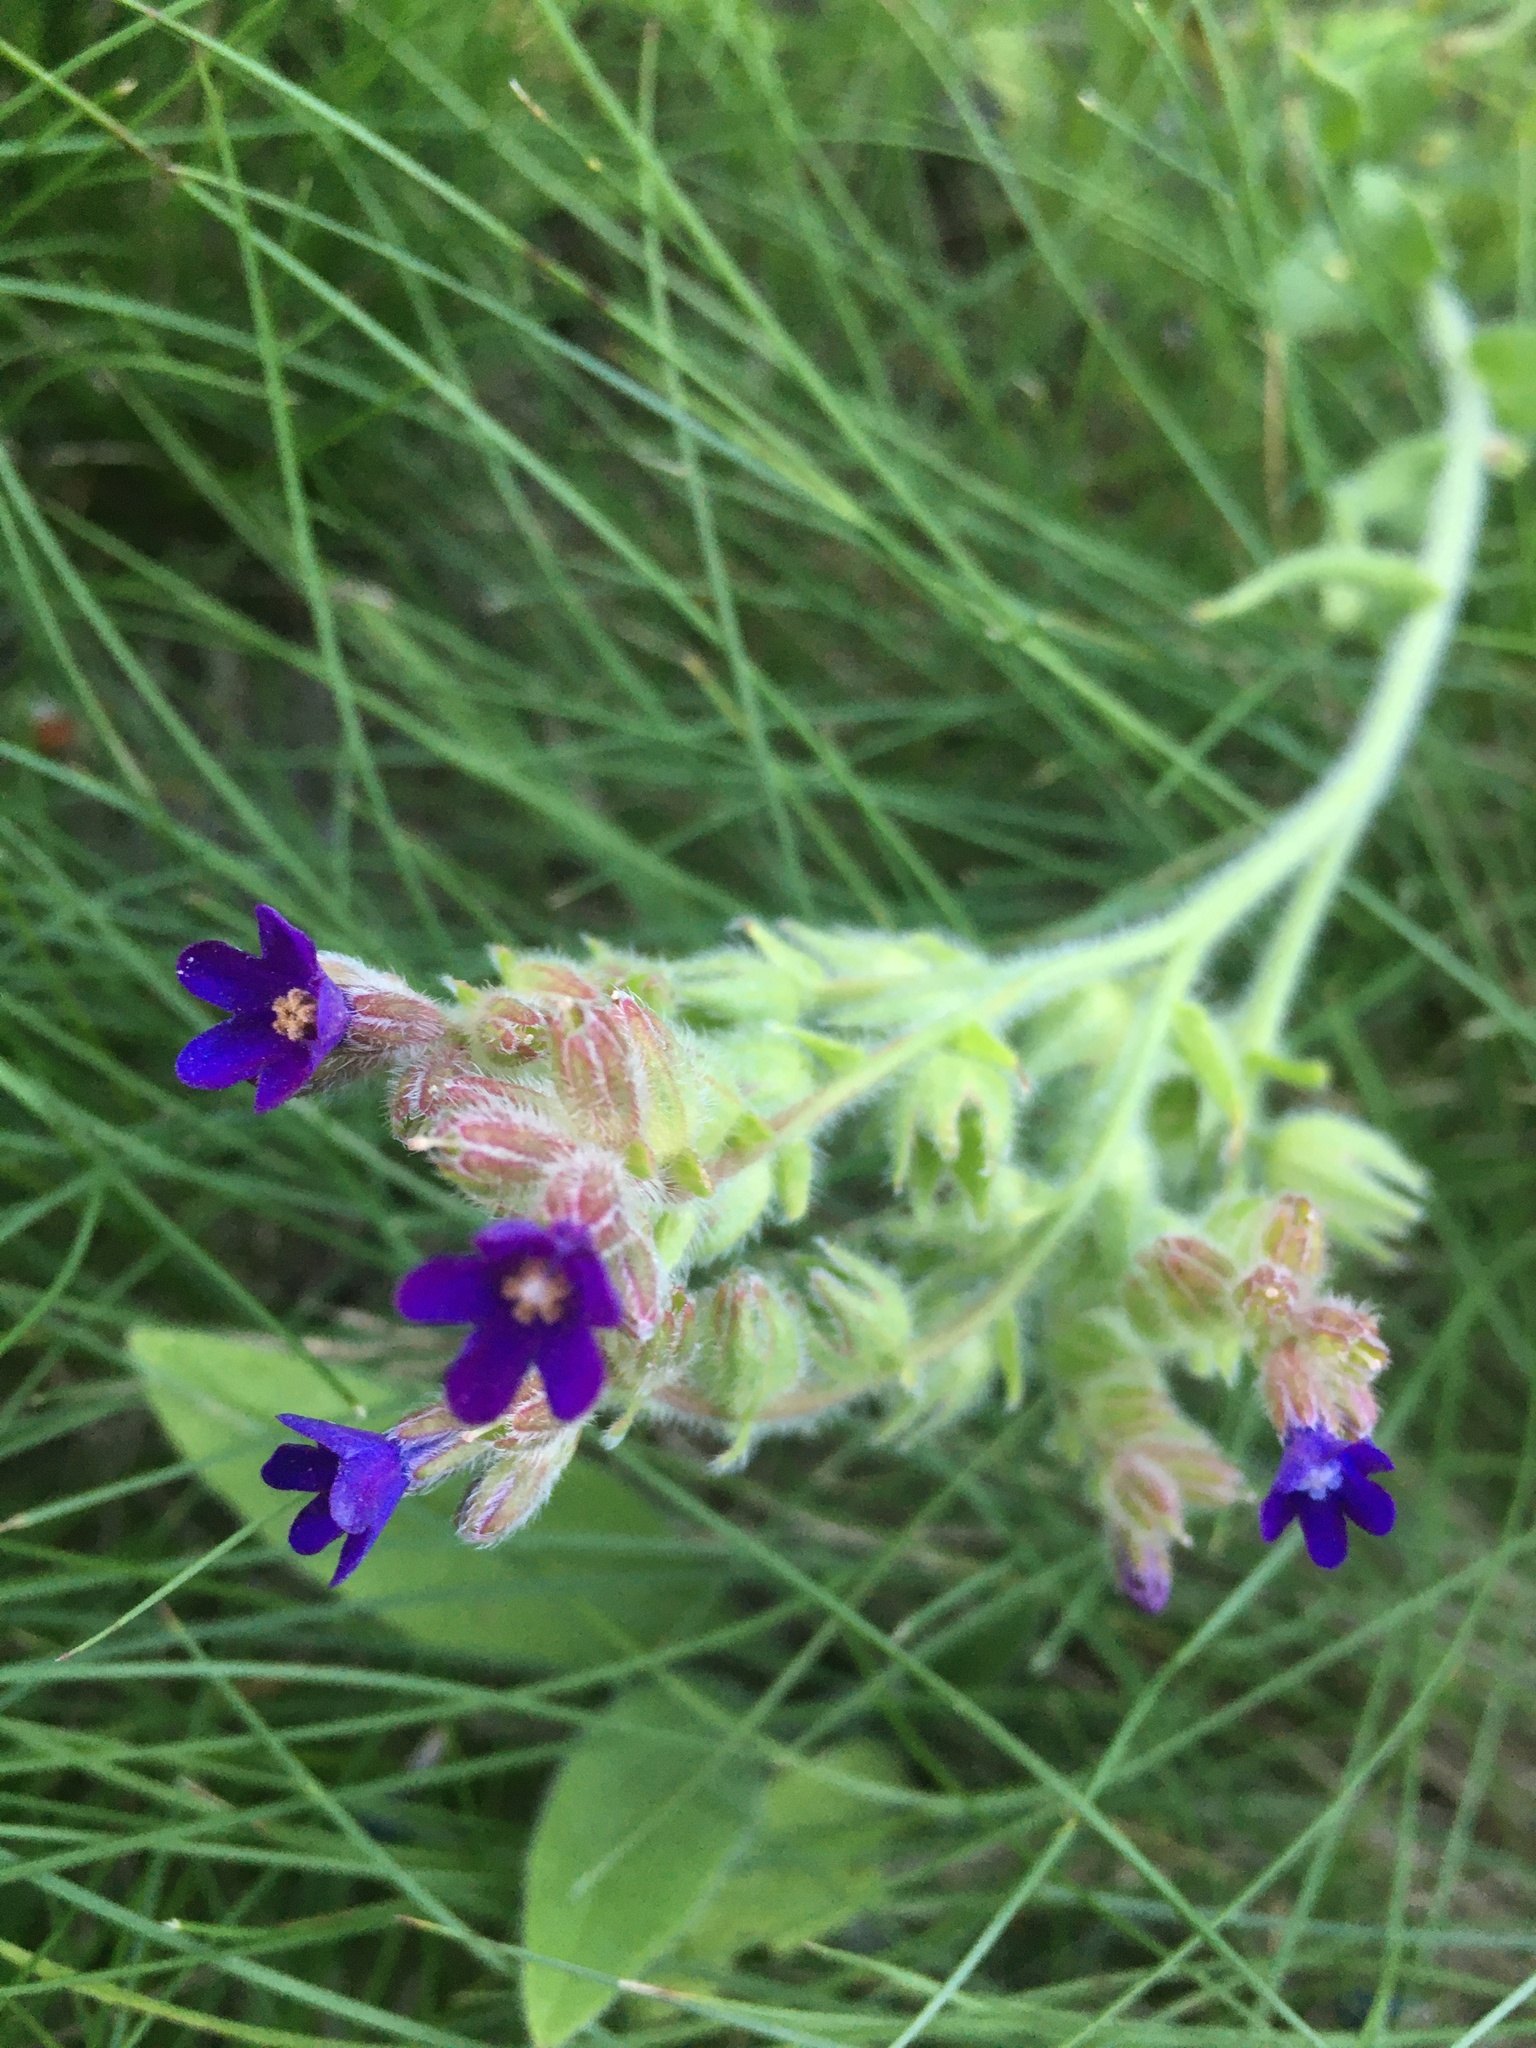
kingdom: Plantae
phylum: Tracheophyta
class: Magnoliopsida
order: Boraginales
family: Boraginaceae
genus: Anchusa
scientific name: Anchusa officinalis
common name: Alkanet
